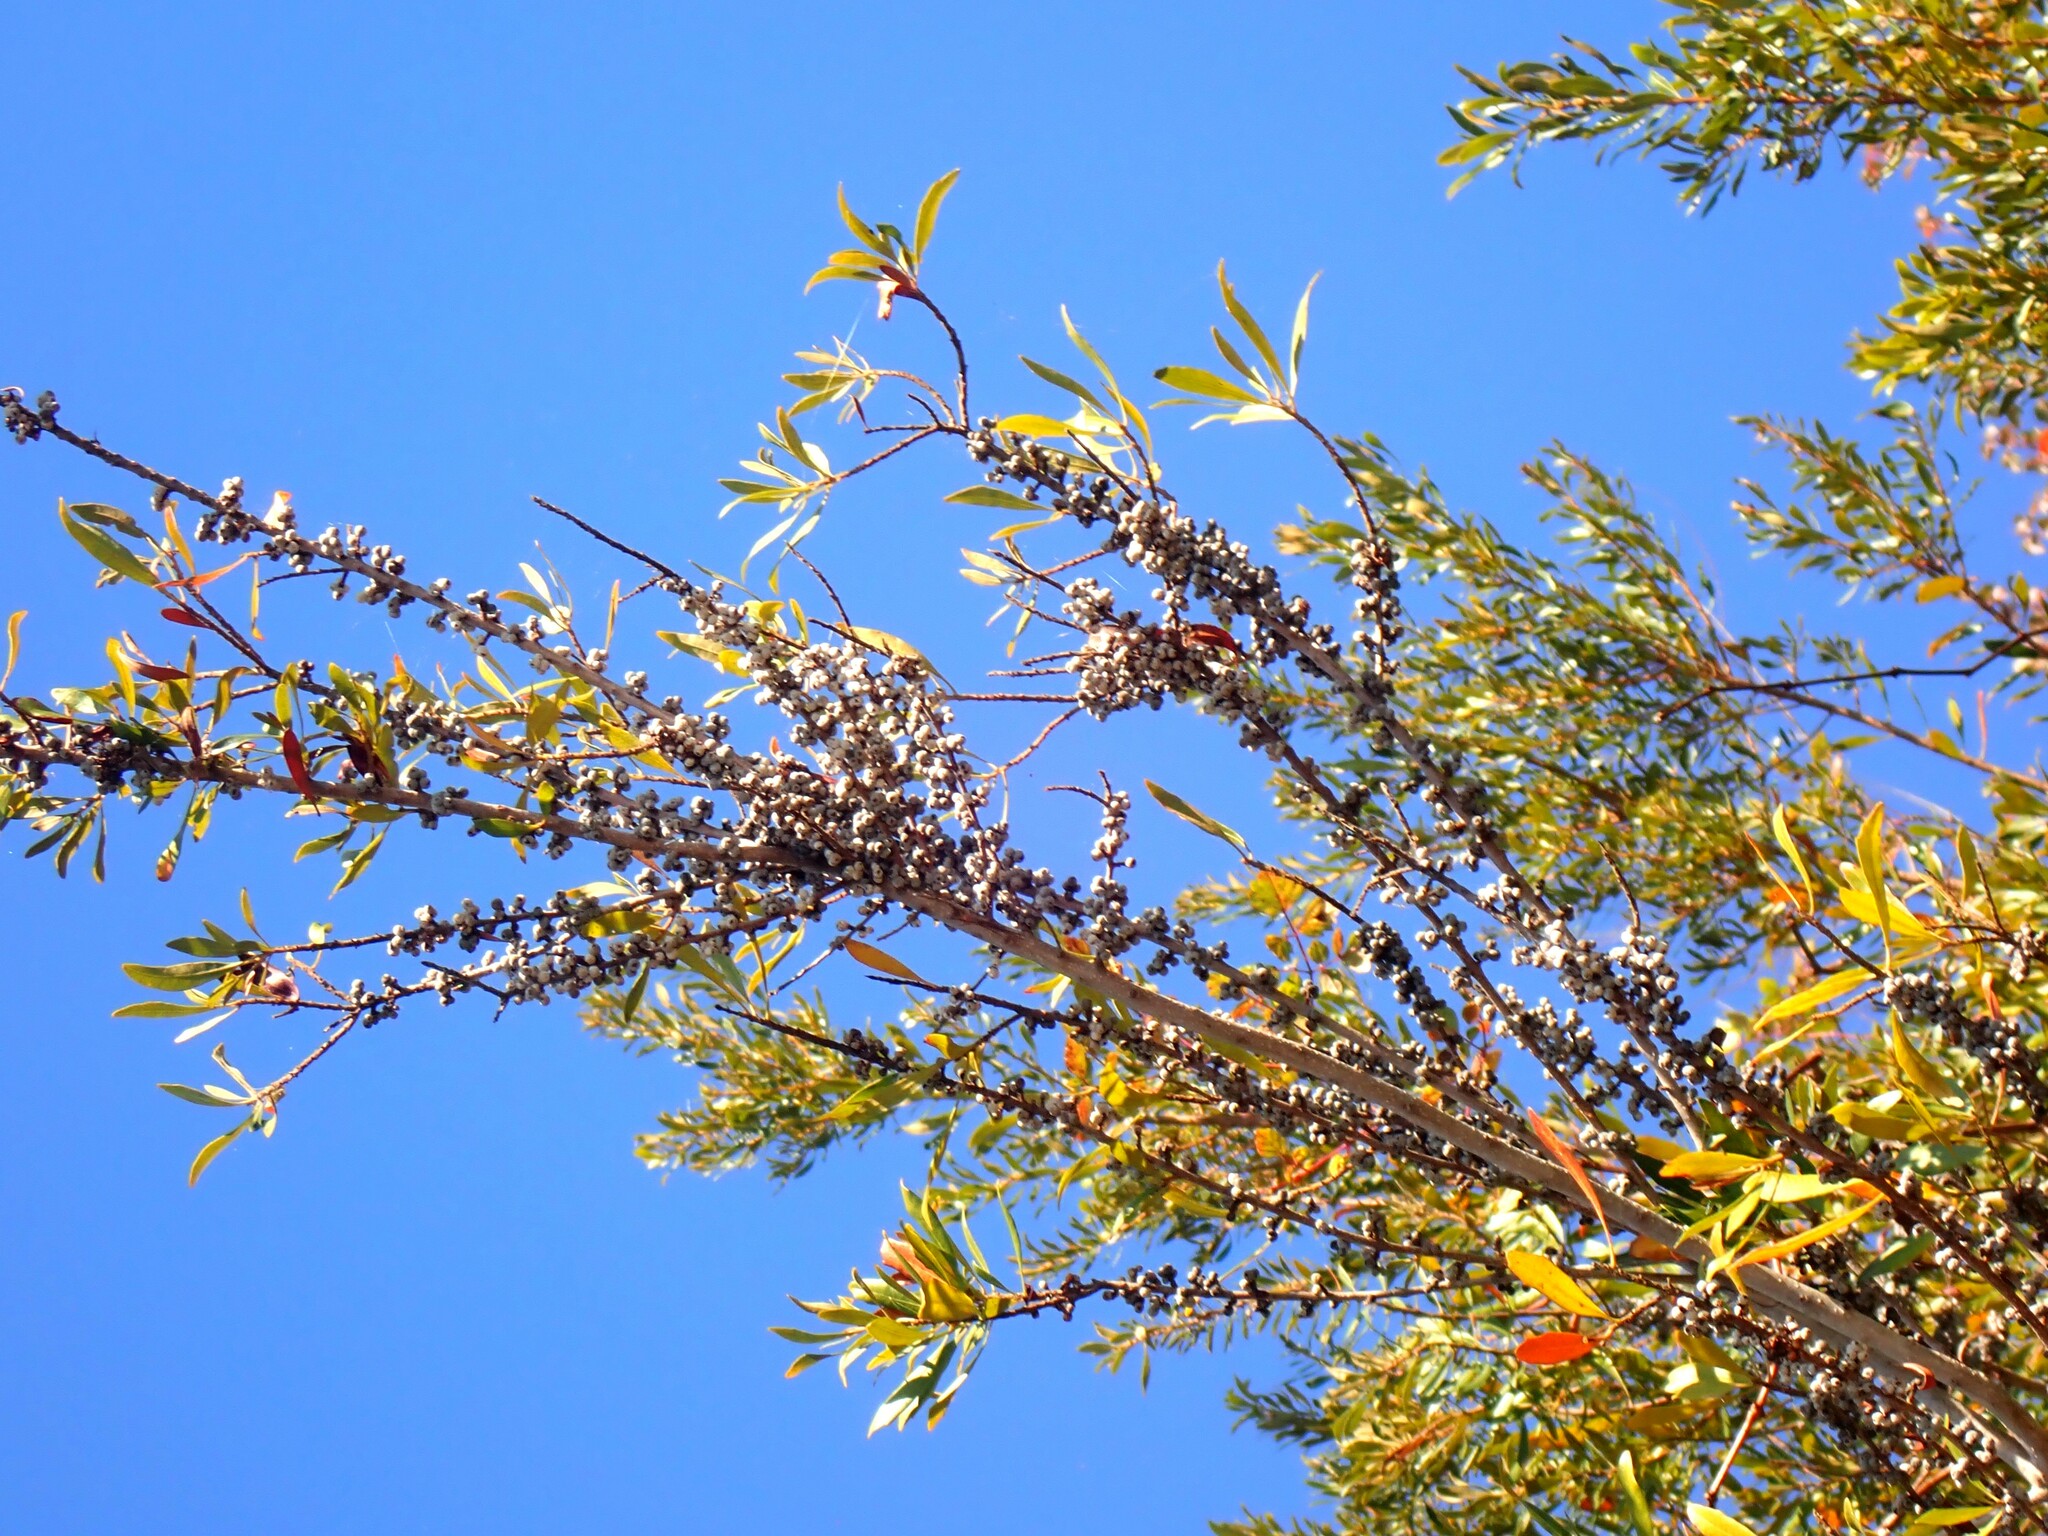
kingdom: Plantae
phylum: Tracheophyta
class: Magnoliopsida
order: Fagales
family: Myricaceae
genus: Morella
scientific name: Morella cerifera
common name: Wax myrtle
